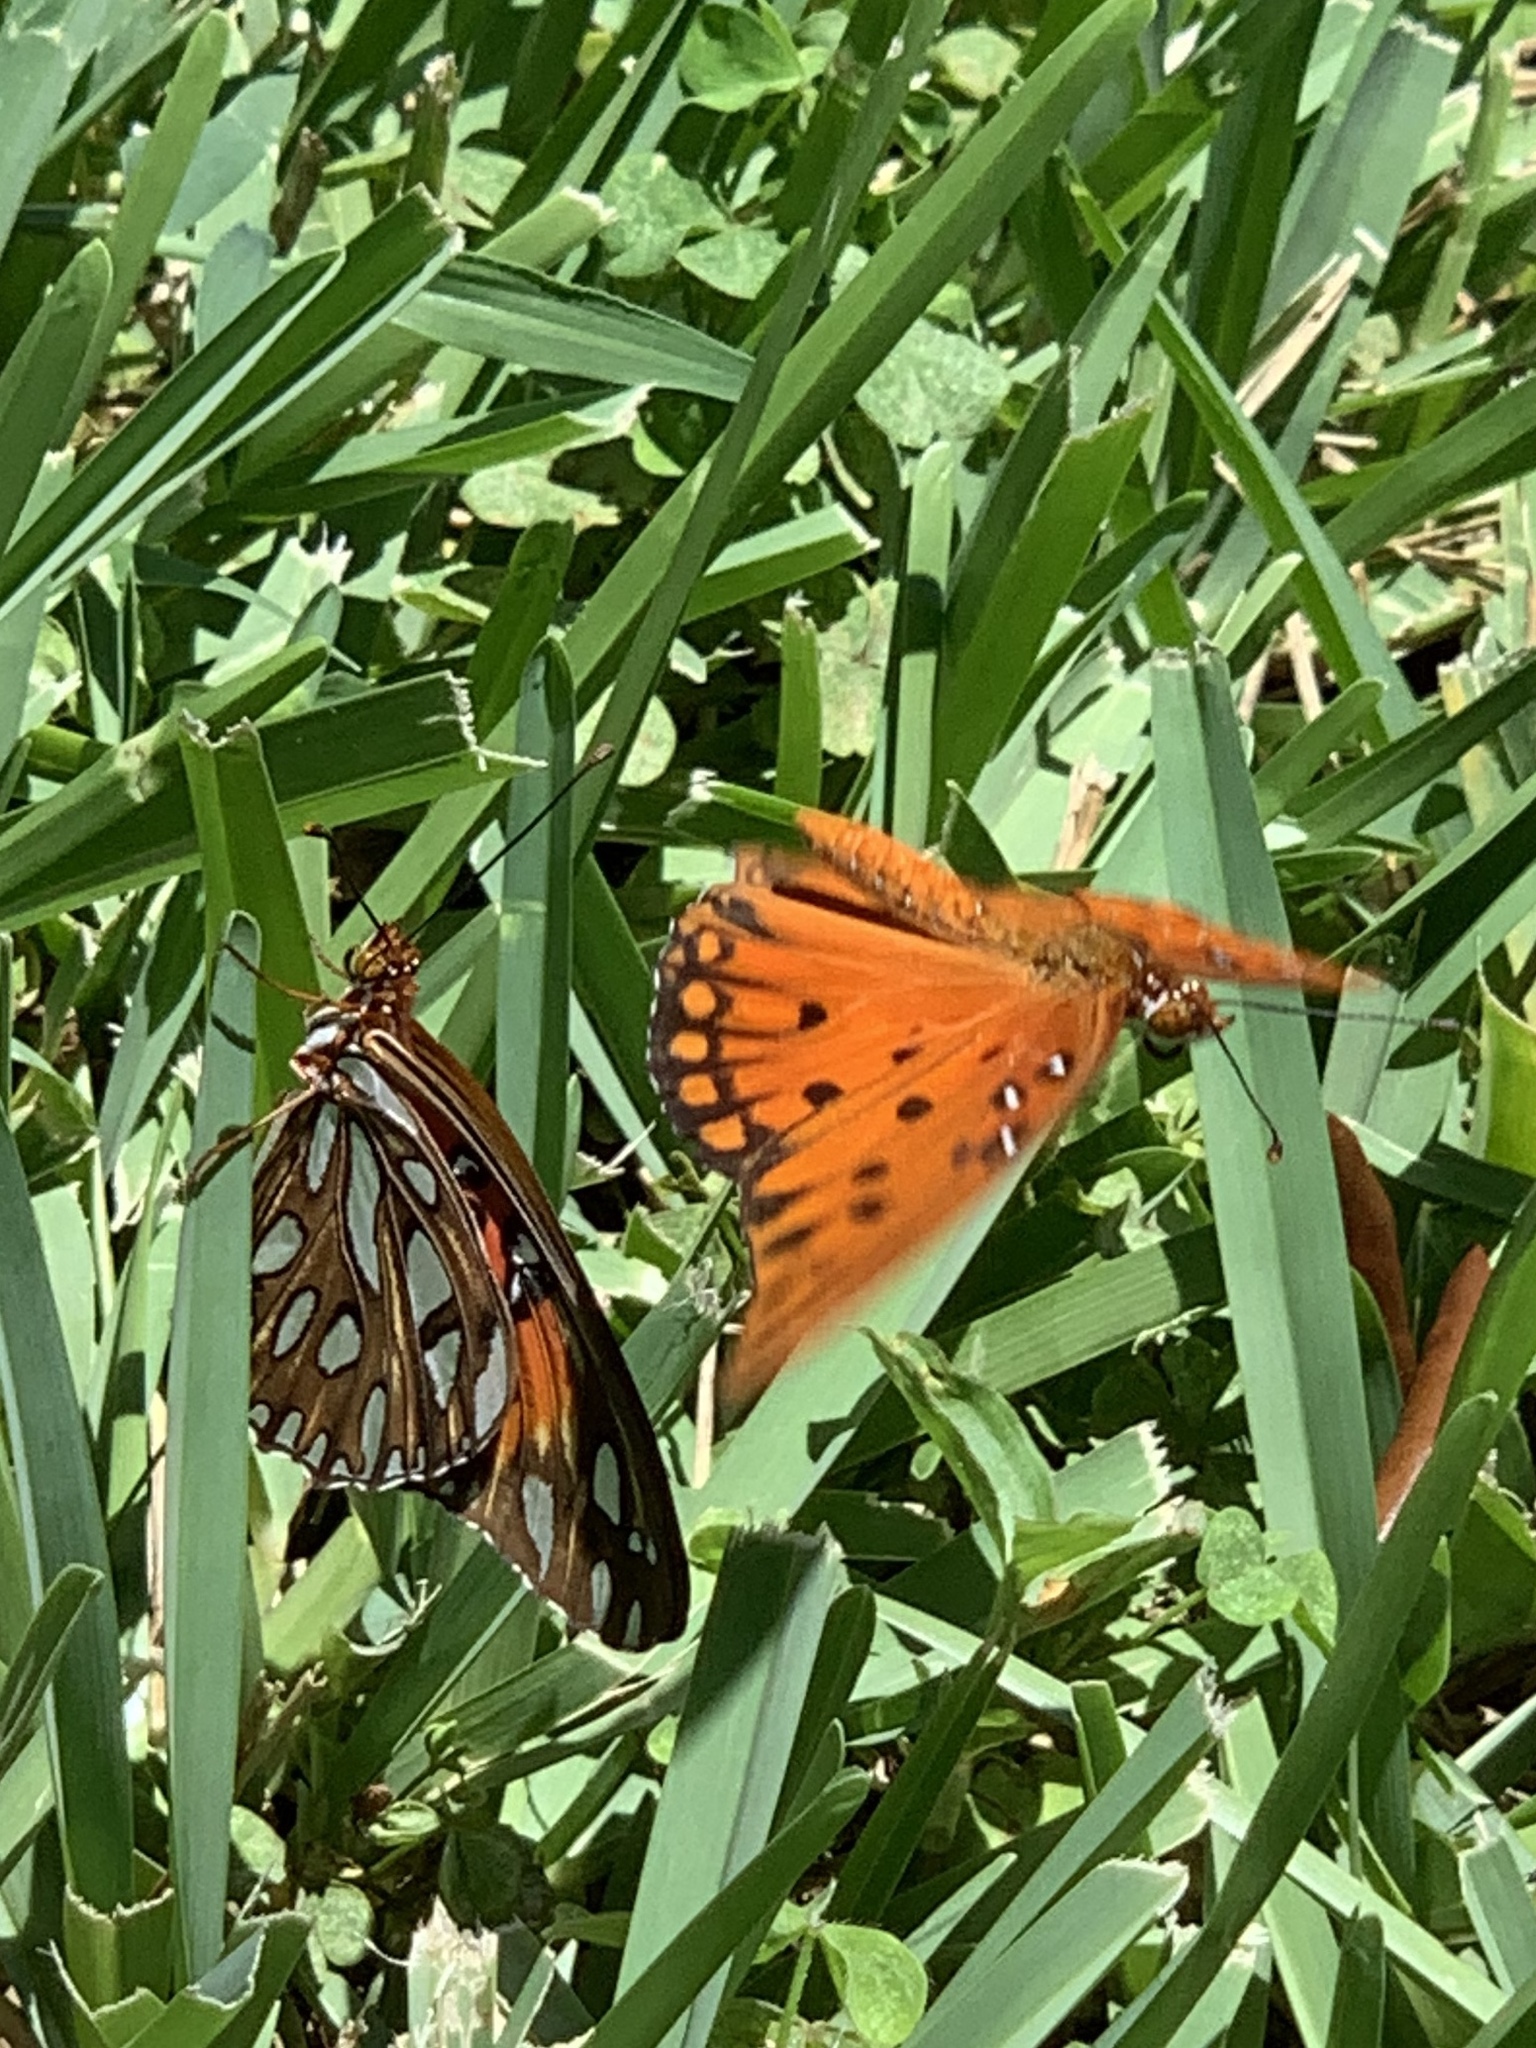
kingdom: Animalia
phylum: Arthropoda
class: Insecta
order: Lepidoptera
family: Nymphalidae
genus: Dione
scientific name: Dione vanillae
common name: Gulf fritillary
